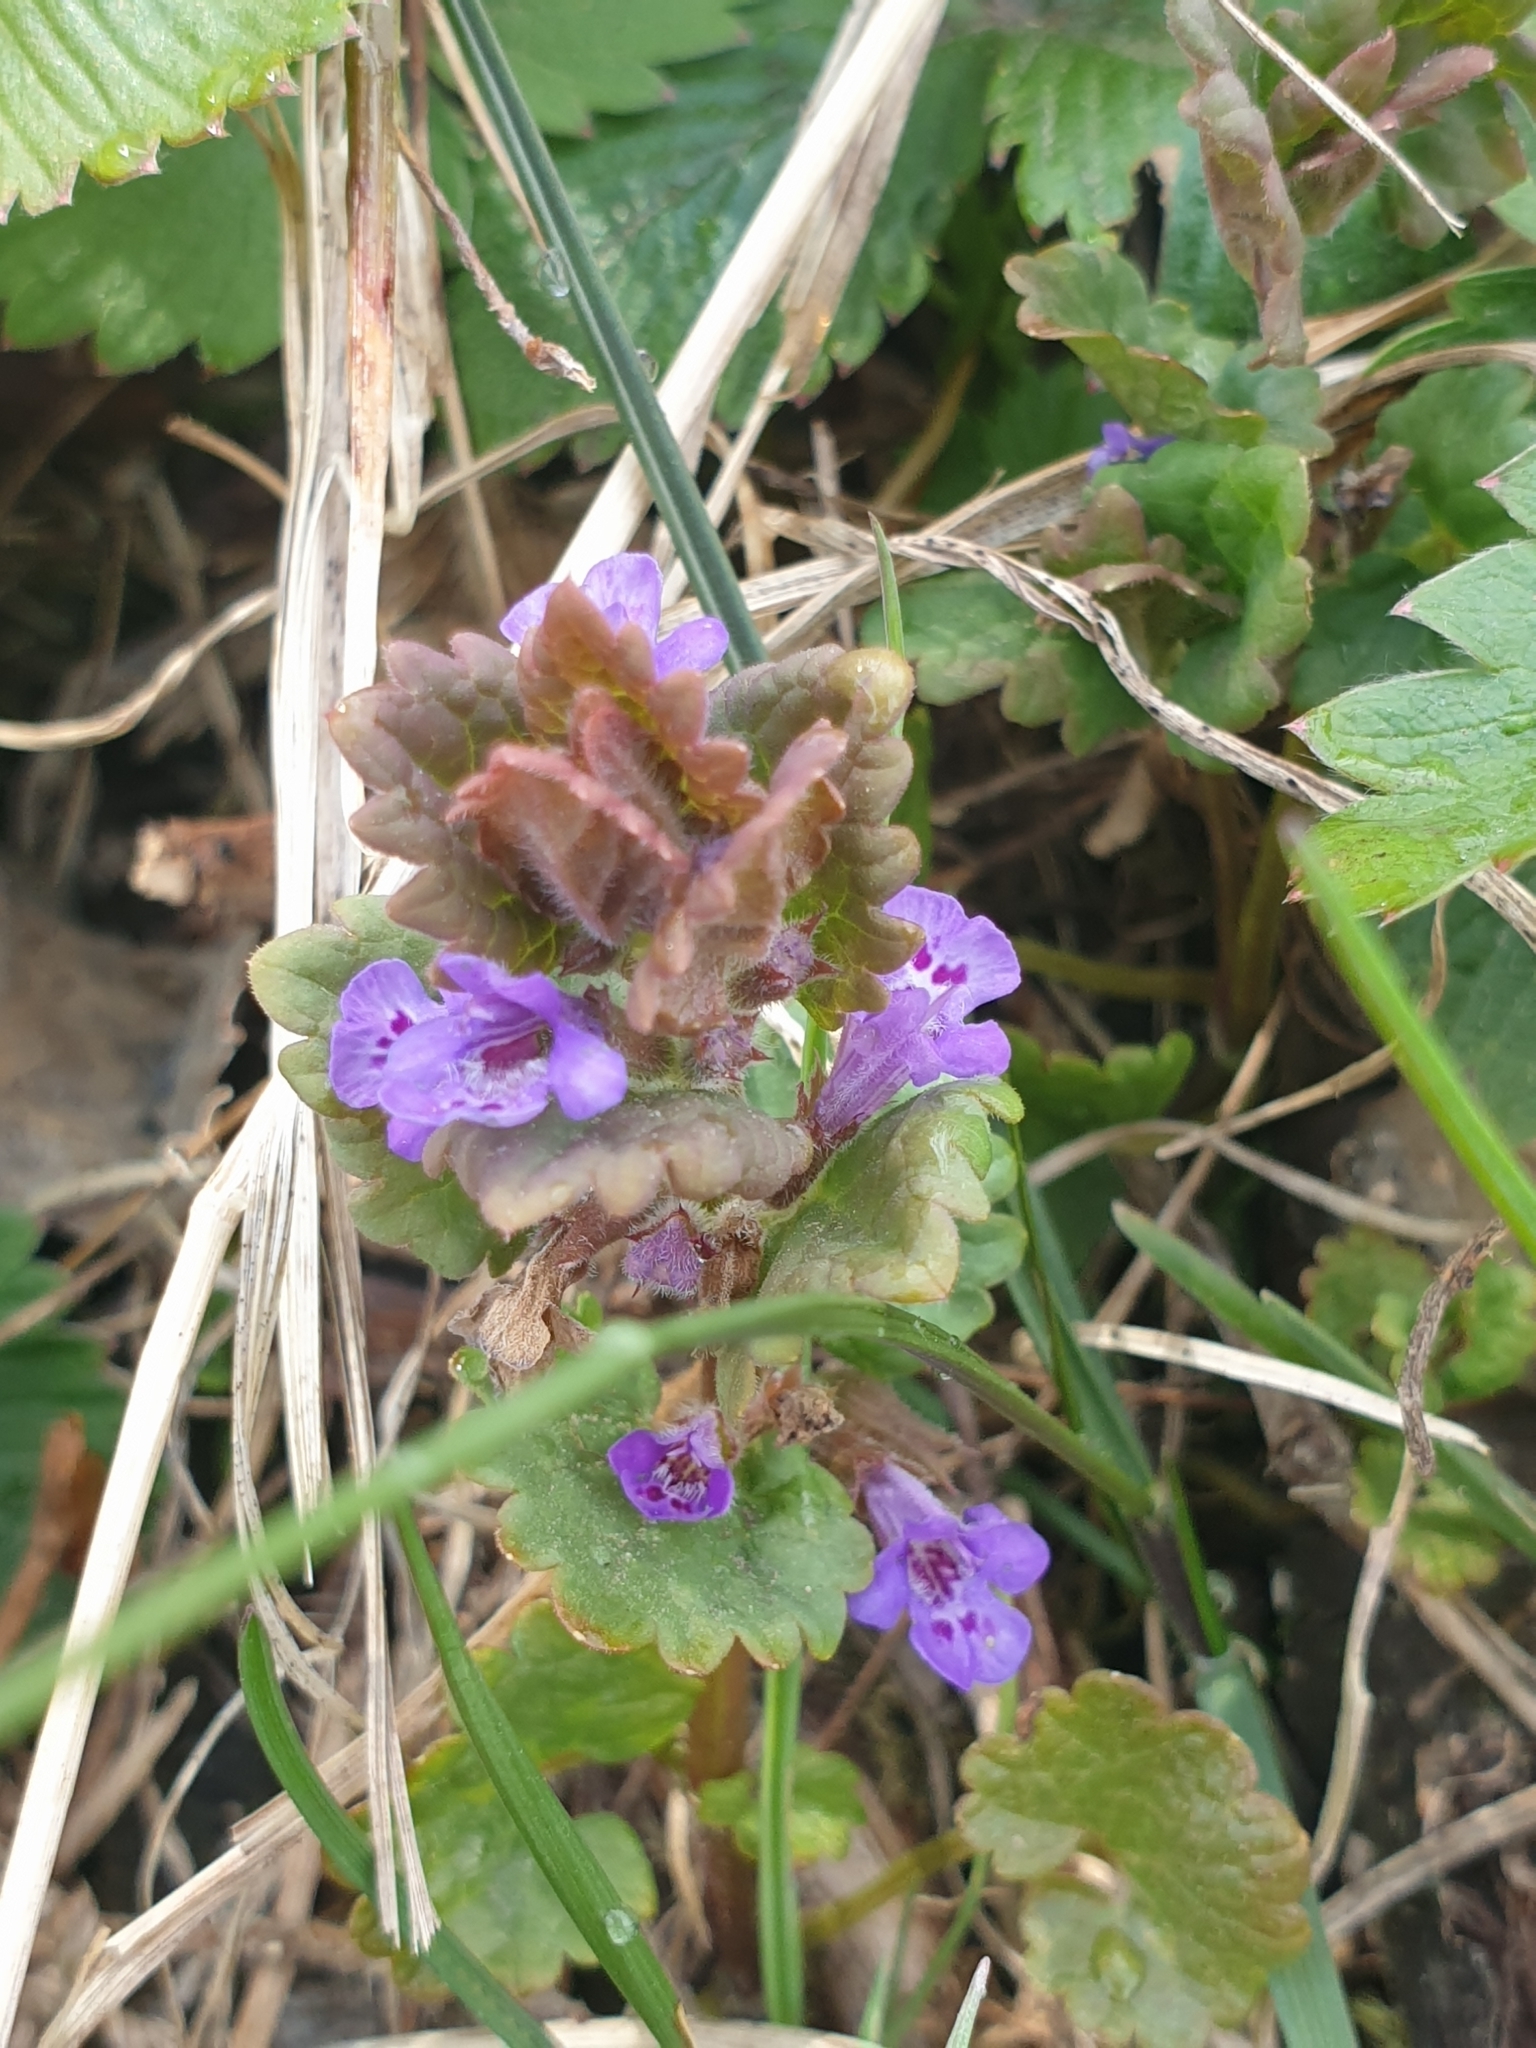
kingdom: Plantae
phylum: Tracheophyta
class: Magnoliopsida
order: Lamiales
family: Lamiaceae
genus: Glechoma
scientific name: Glechoma hederacea
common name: Ground ivy
